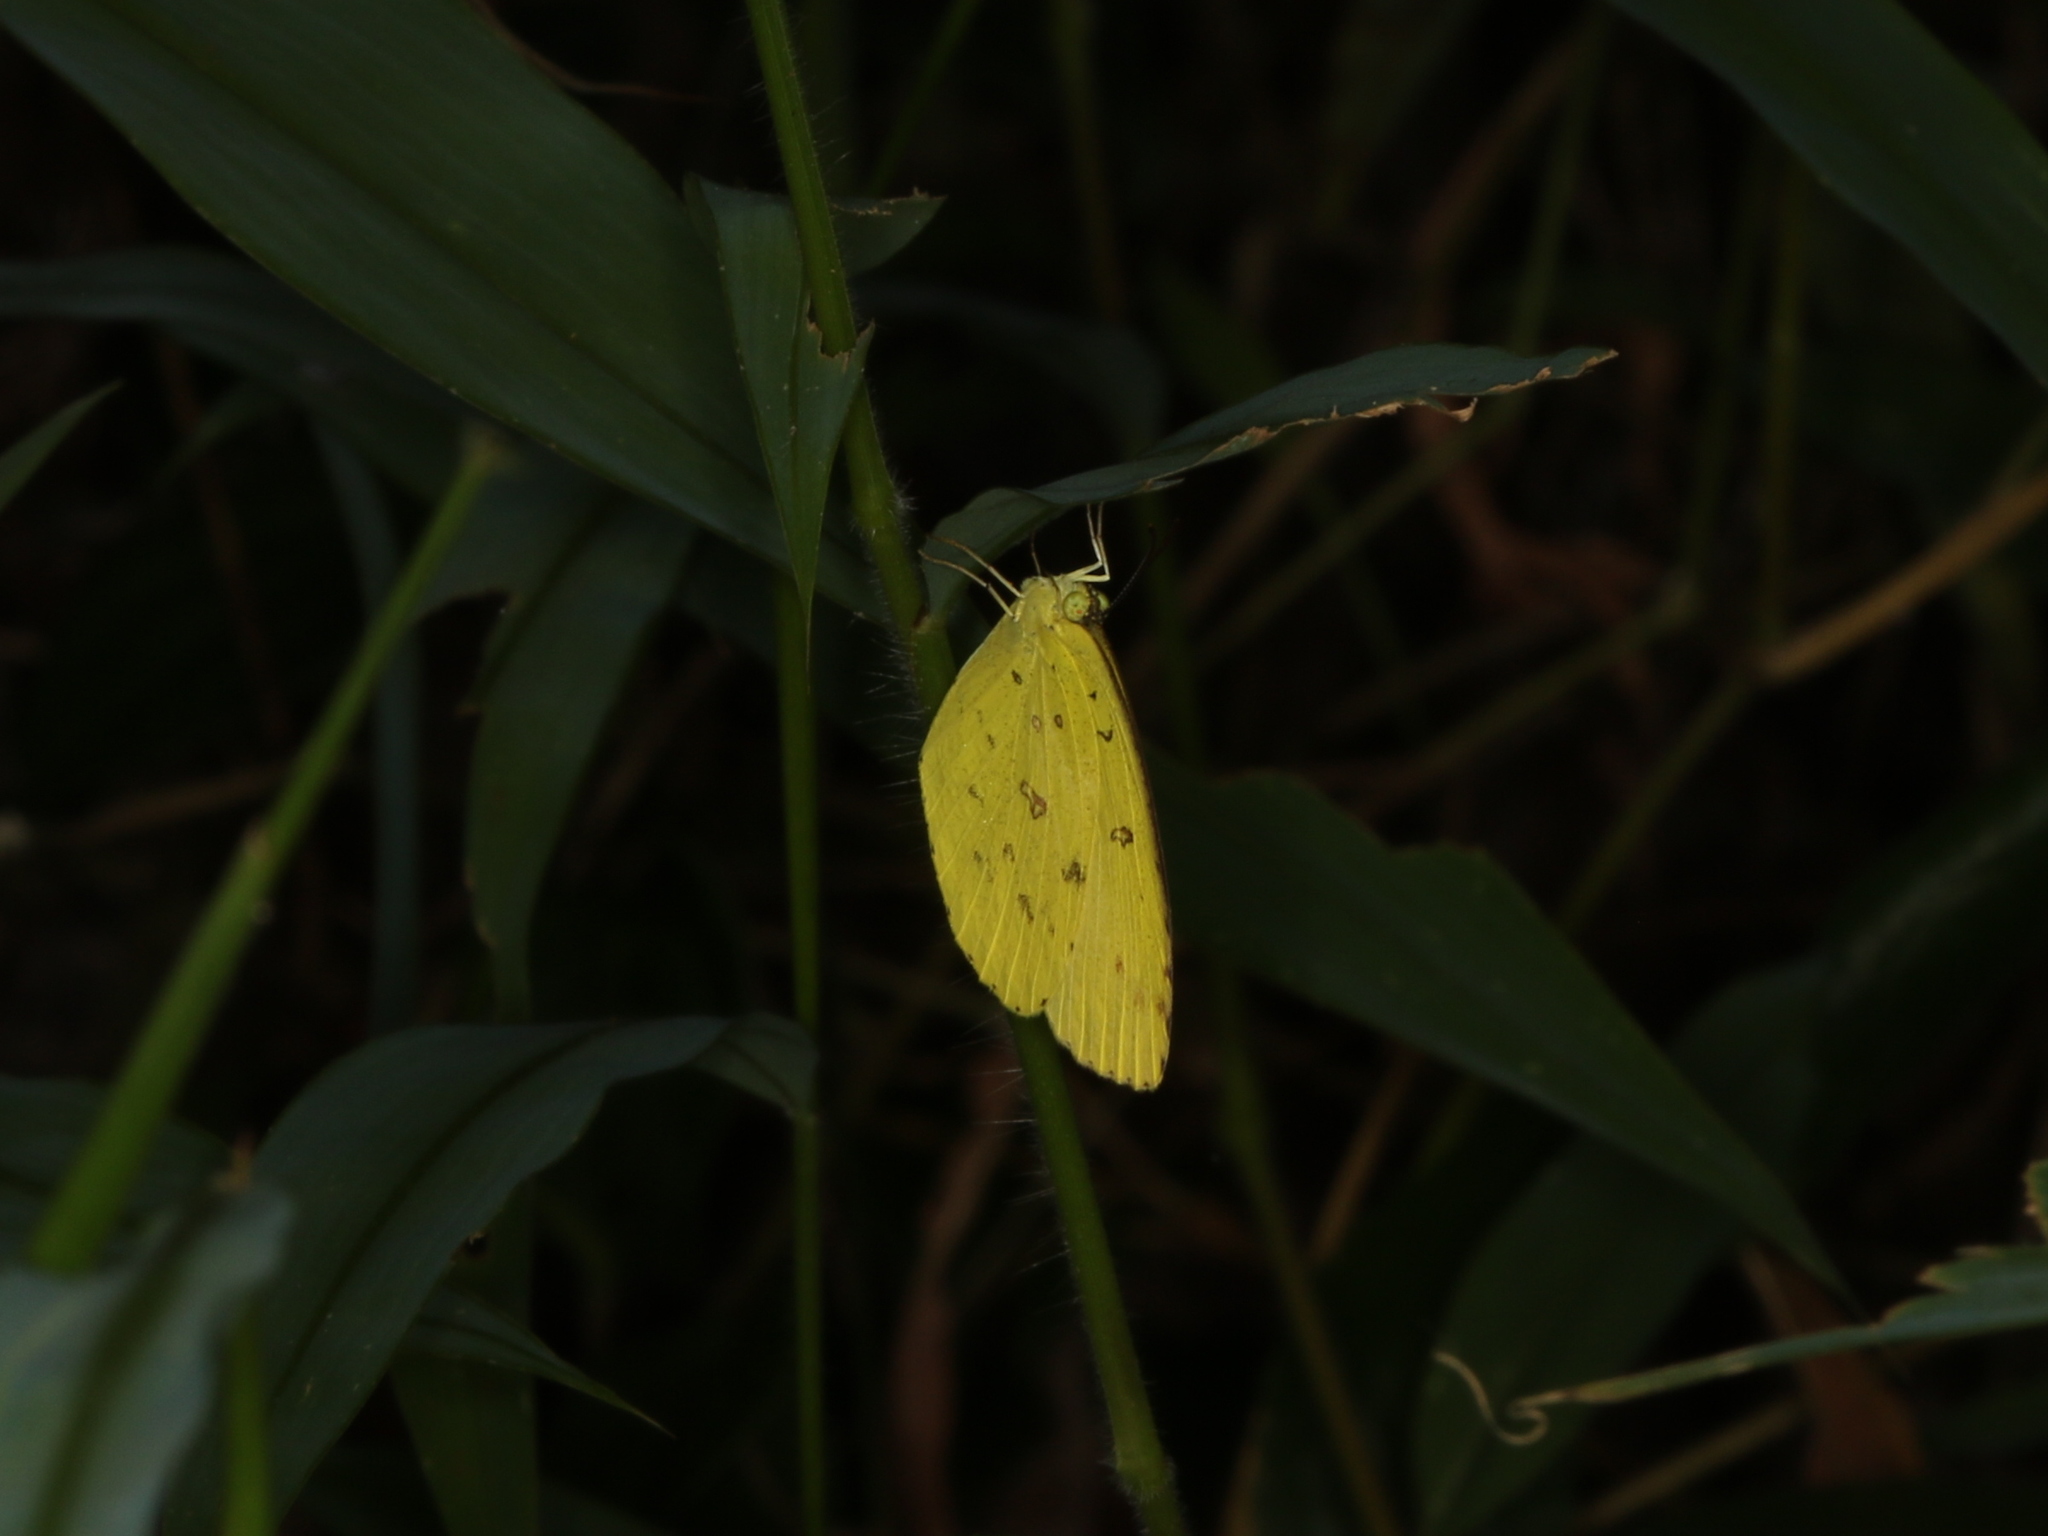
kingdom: Animalia
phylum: Arthropoda
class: Insecta
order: Lepidoptera
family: Pieridae
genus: Eurema
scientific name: Eurema hecabe
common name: Pale grass yellow
